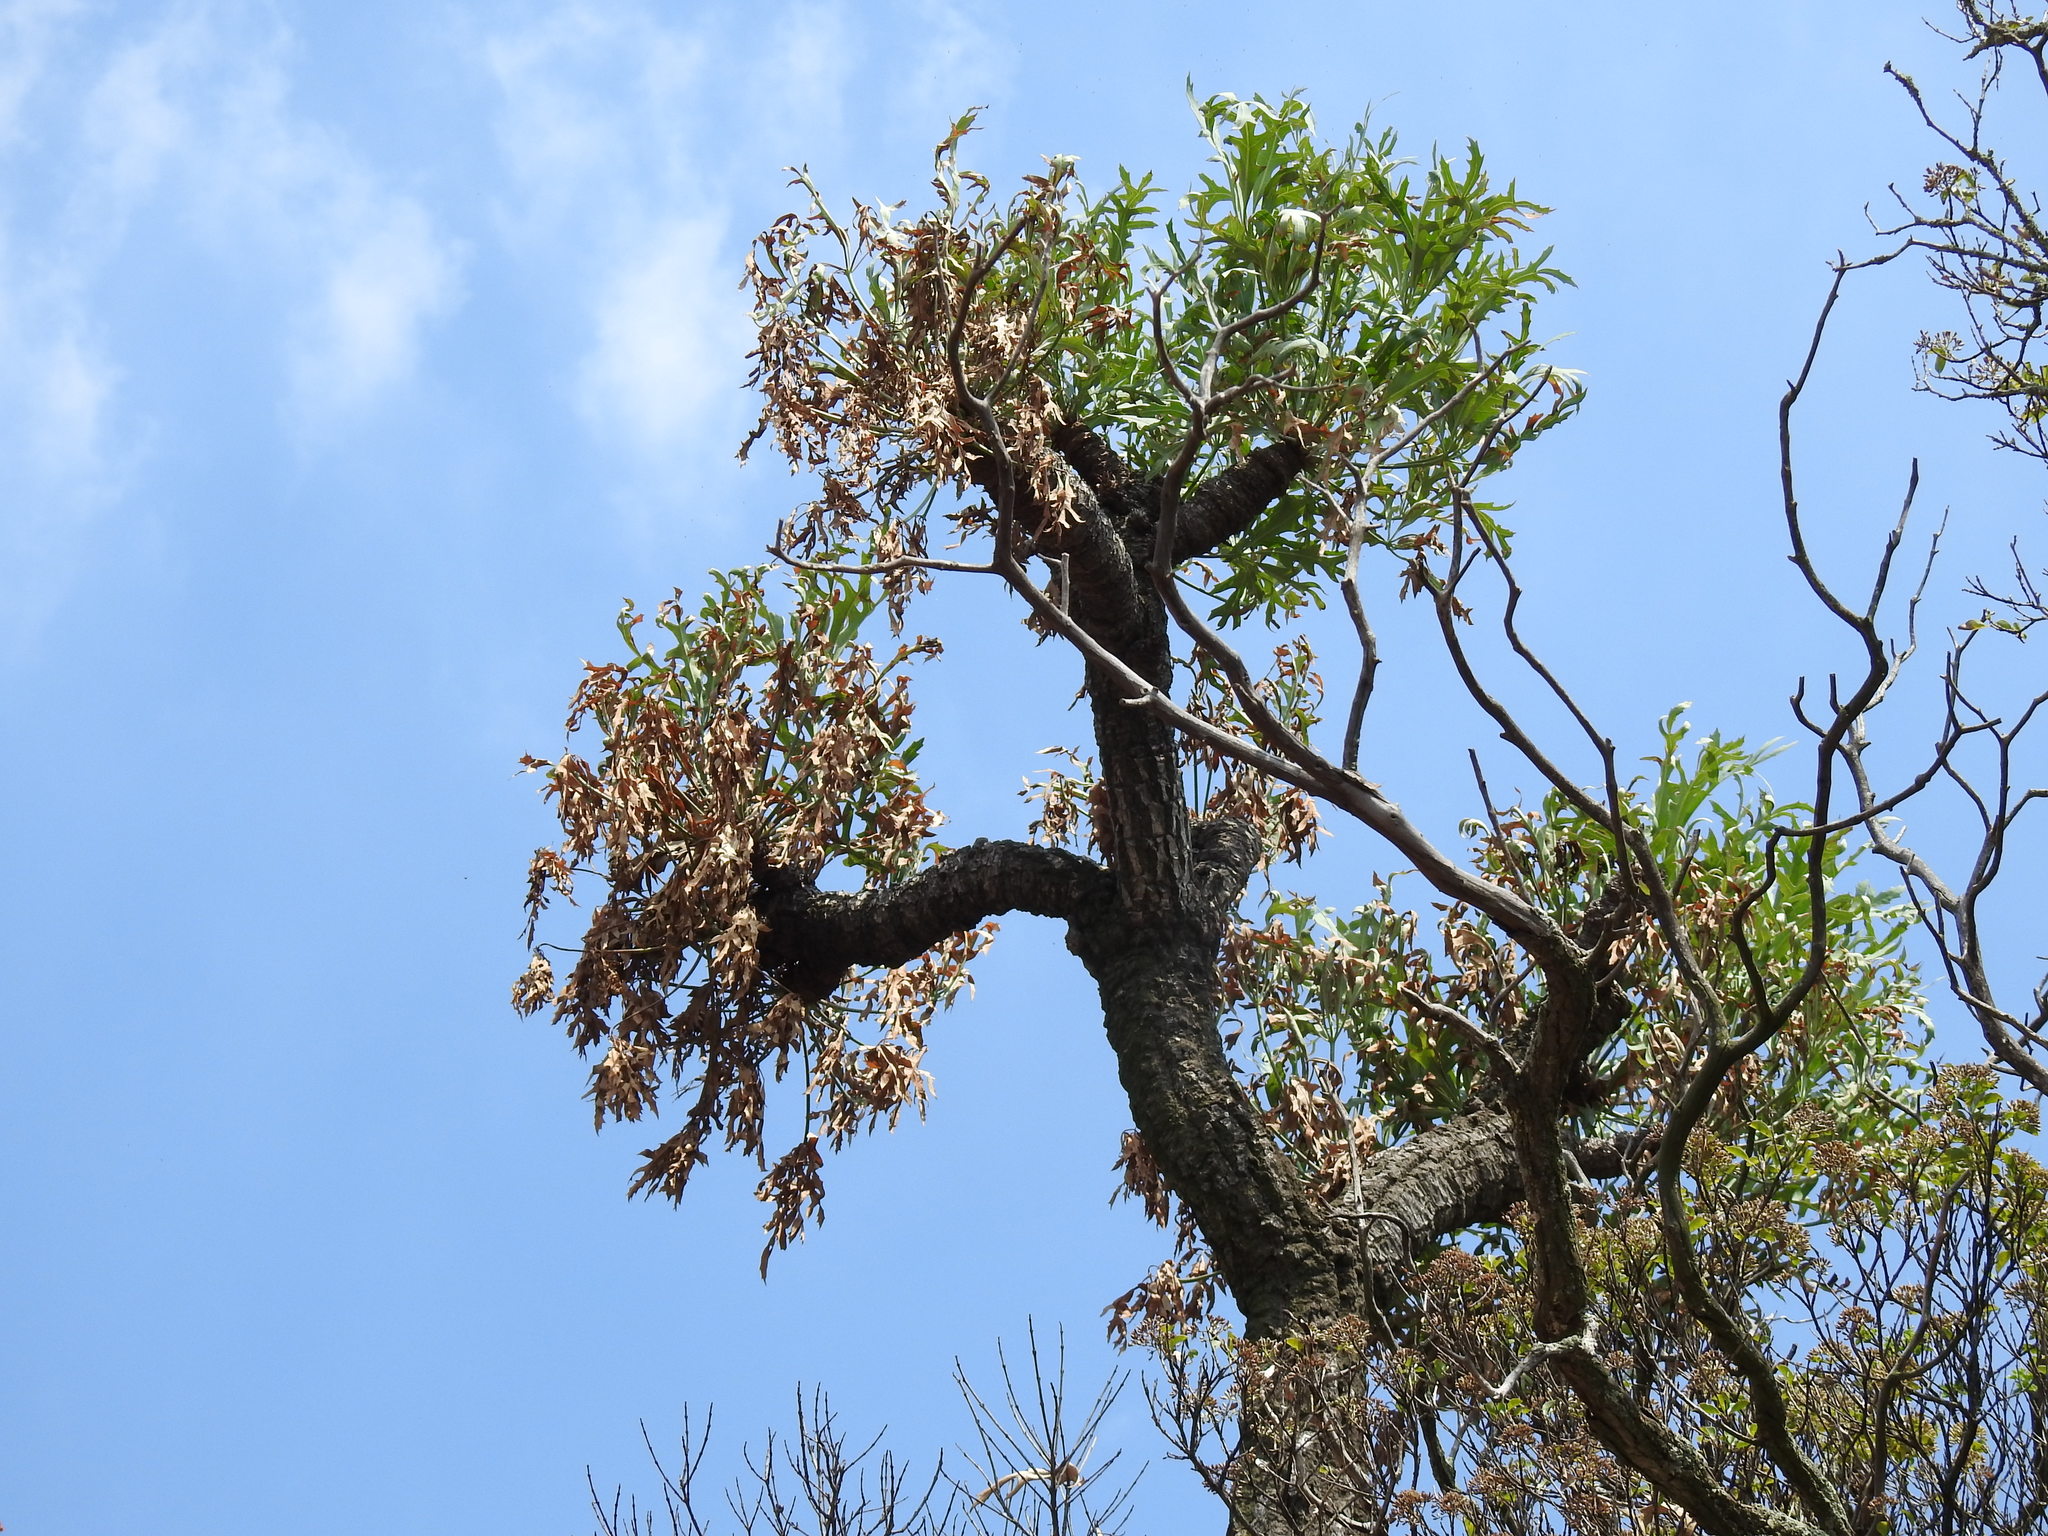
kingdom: Plantae
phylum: Tracheophyta
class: Magnoliopsida
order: Apiales
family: Araliaceae
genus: Cussonia
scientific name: Cussonia paniculata
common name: Cabbagetree
